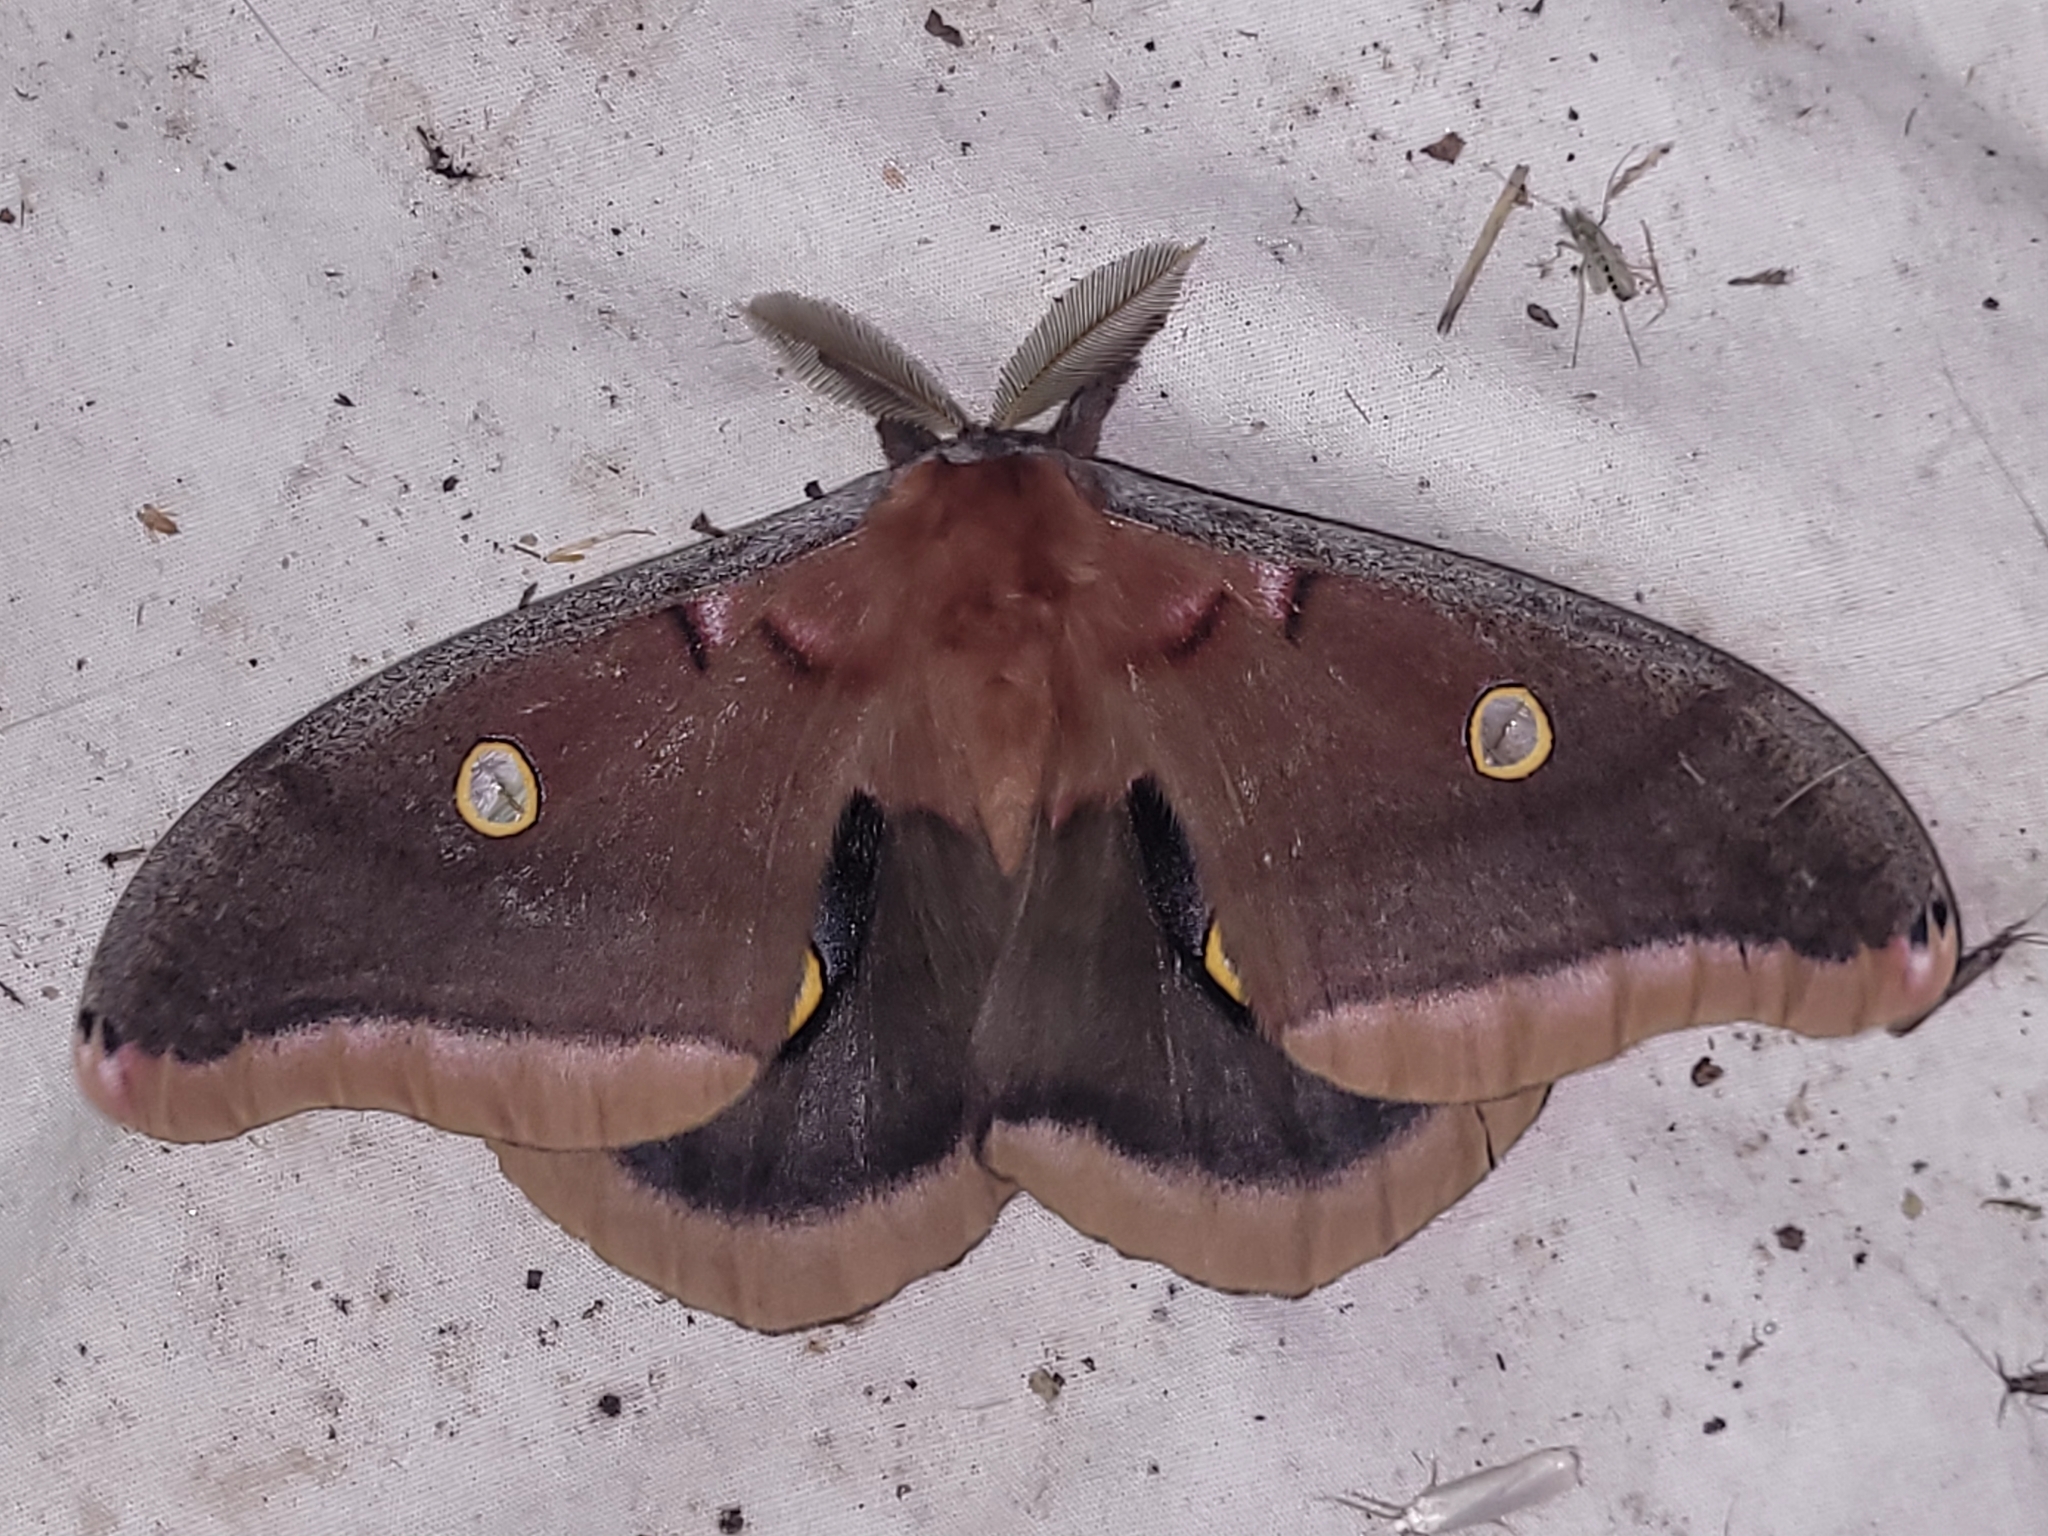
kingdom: Animalia
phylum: Arthropoda
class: Insecta
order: Lepidoptera
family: Saturniidae
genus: Antheraea
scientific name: Antheraea polyphemus
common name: Polyphemus moth
